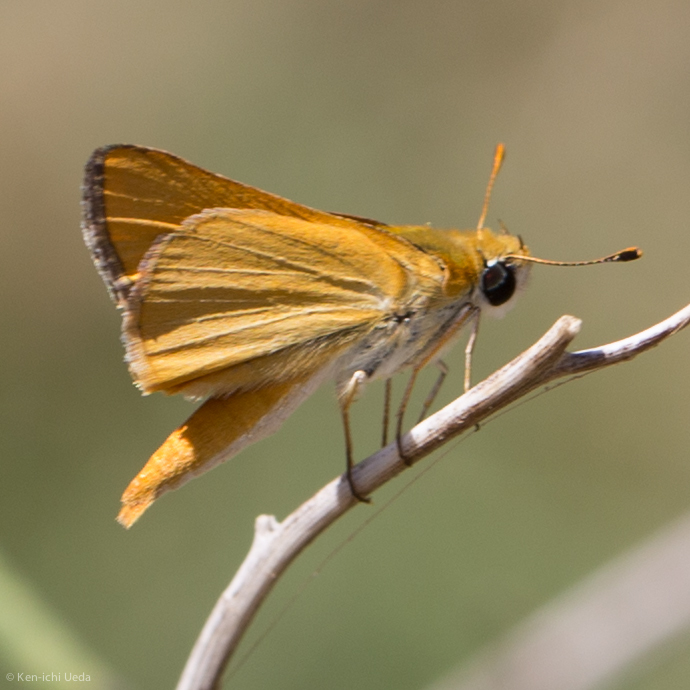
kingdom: Animalia
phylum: Arthropoda
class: Insecta
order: Lepidoptera
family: Hesperiidae
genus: Copaeodes
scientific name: Copaeodes aurantiaca
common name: Orange skipperling
